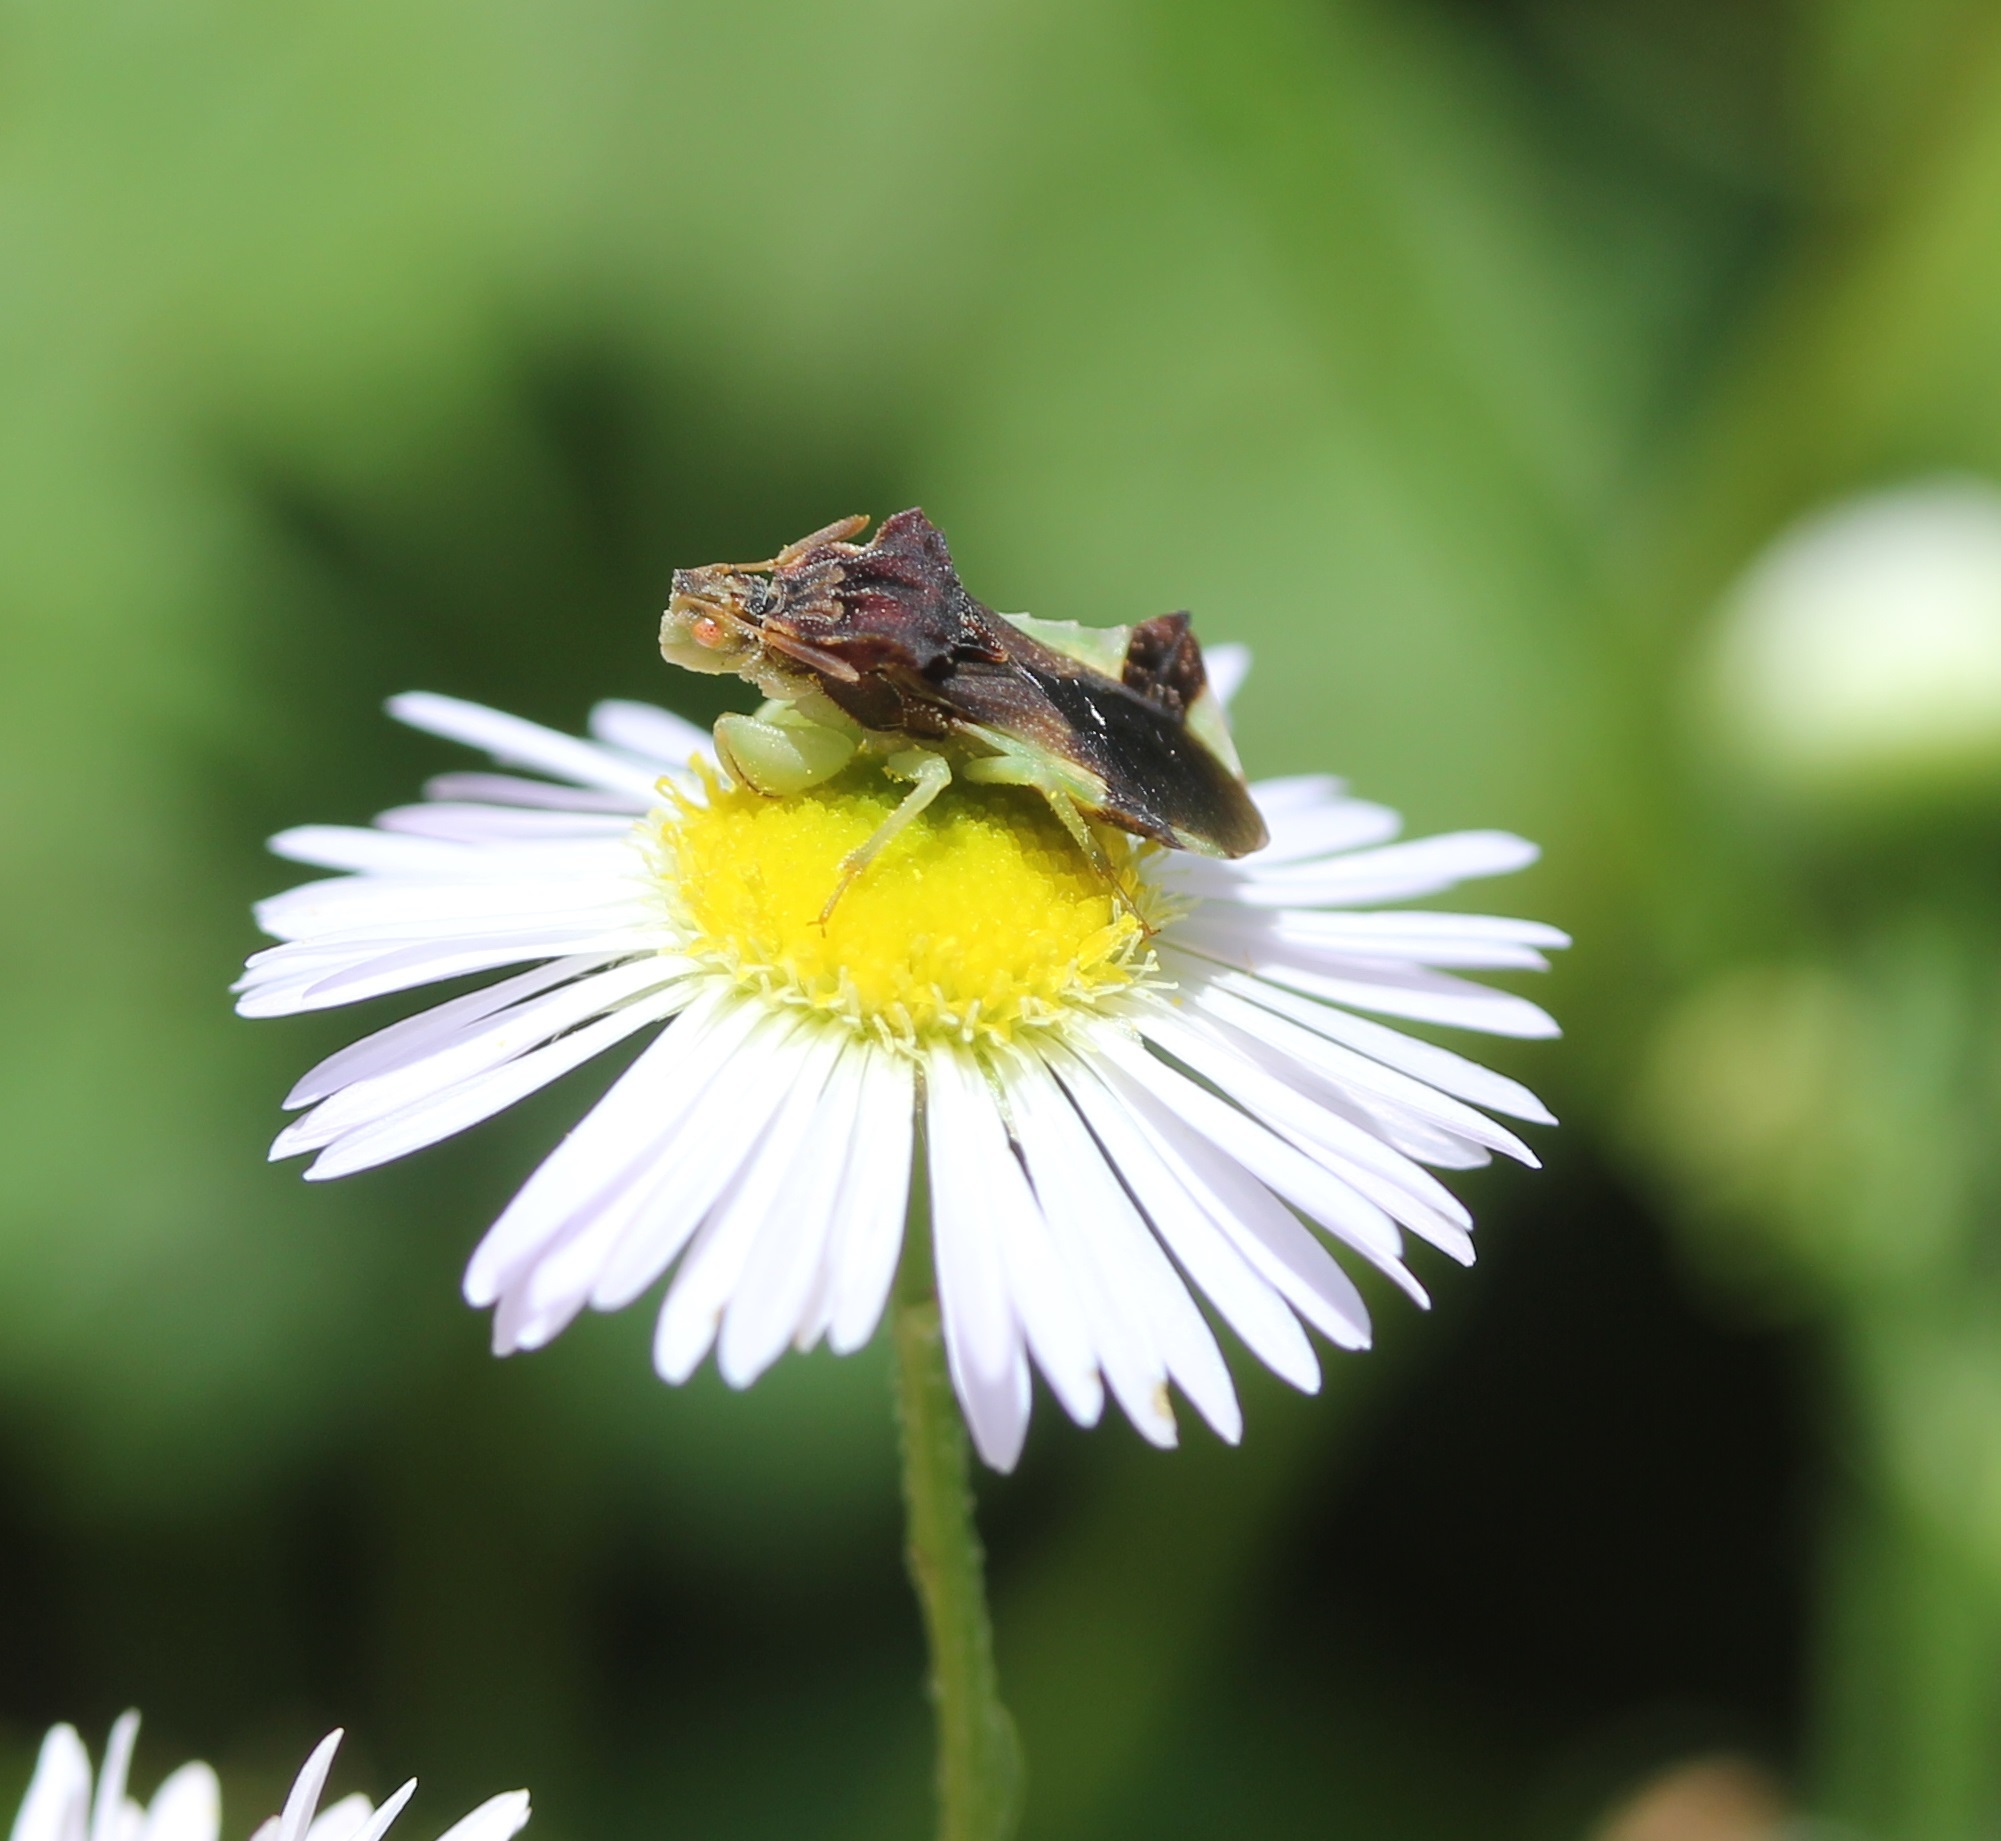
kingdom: Animalia
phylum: Arthropoda
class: Insecta
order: Hemiptera
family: Reduviidae
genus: Phymata
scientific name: Phymata pennsylvanica
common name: Pennsylvania ambush bug
